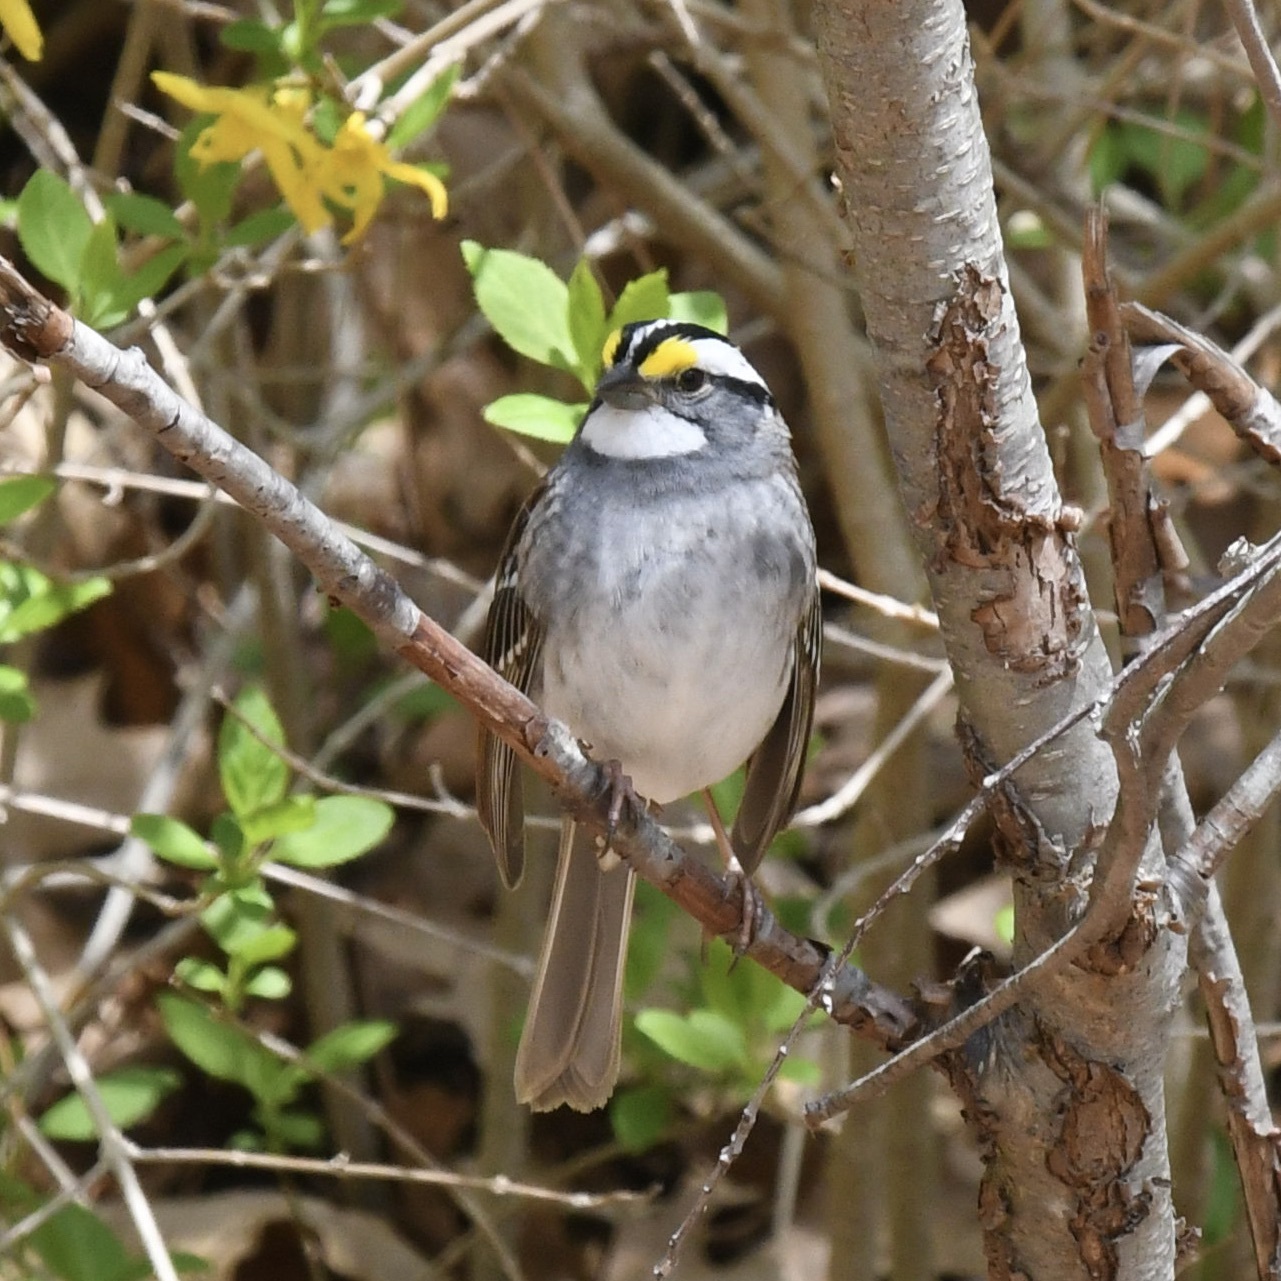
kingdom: Animalia
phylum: Chordata
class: Aves
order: Passeriformes
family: Passerellidae
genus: Zonotrichia
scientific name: Zonotrichia albicollis
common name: White-throated sparrow
